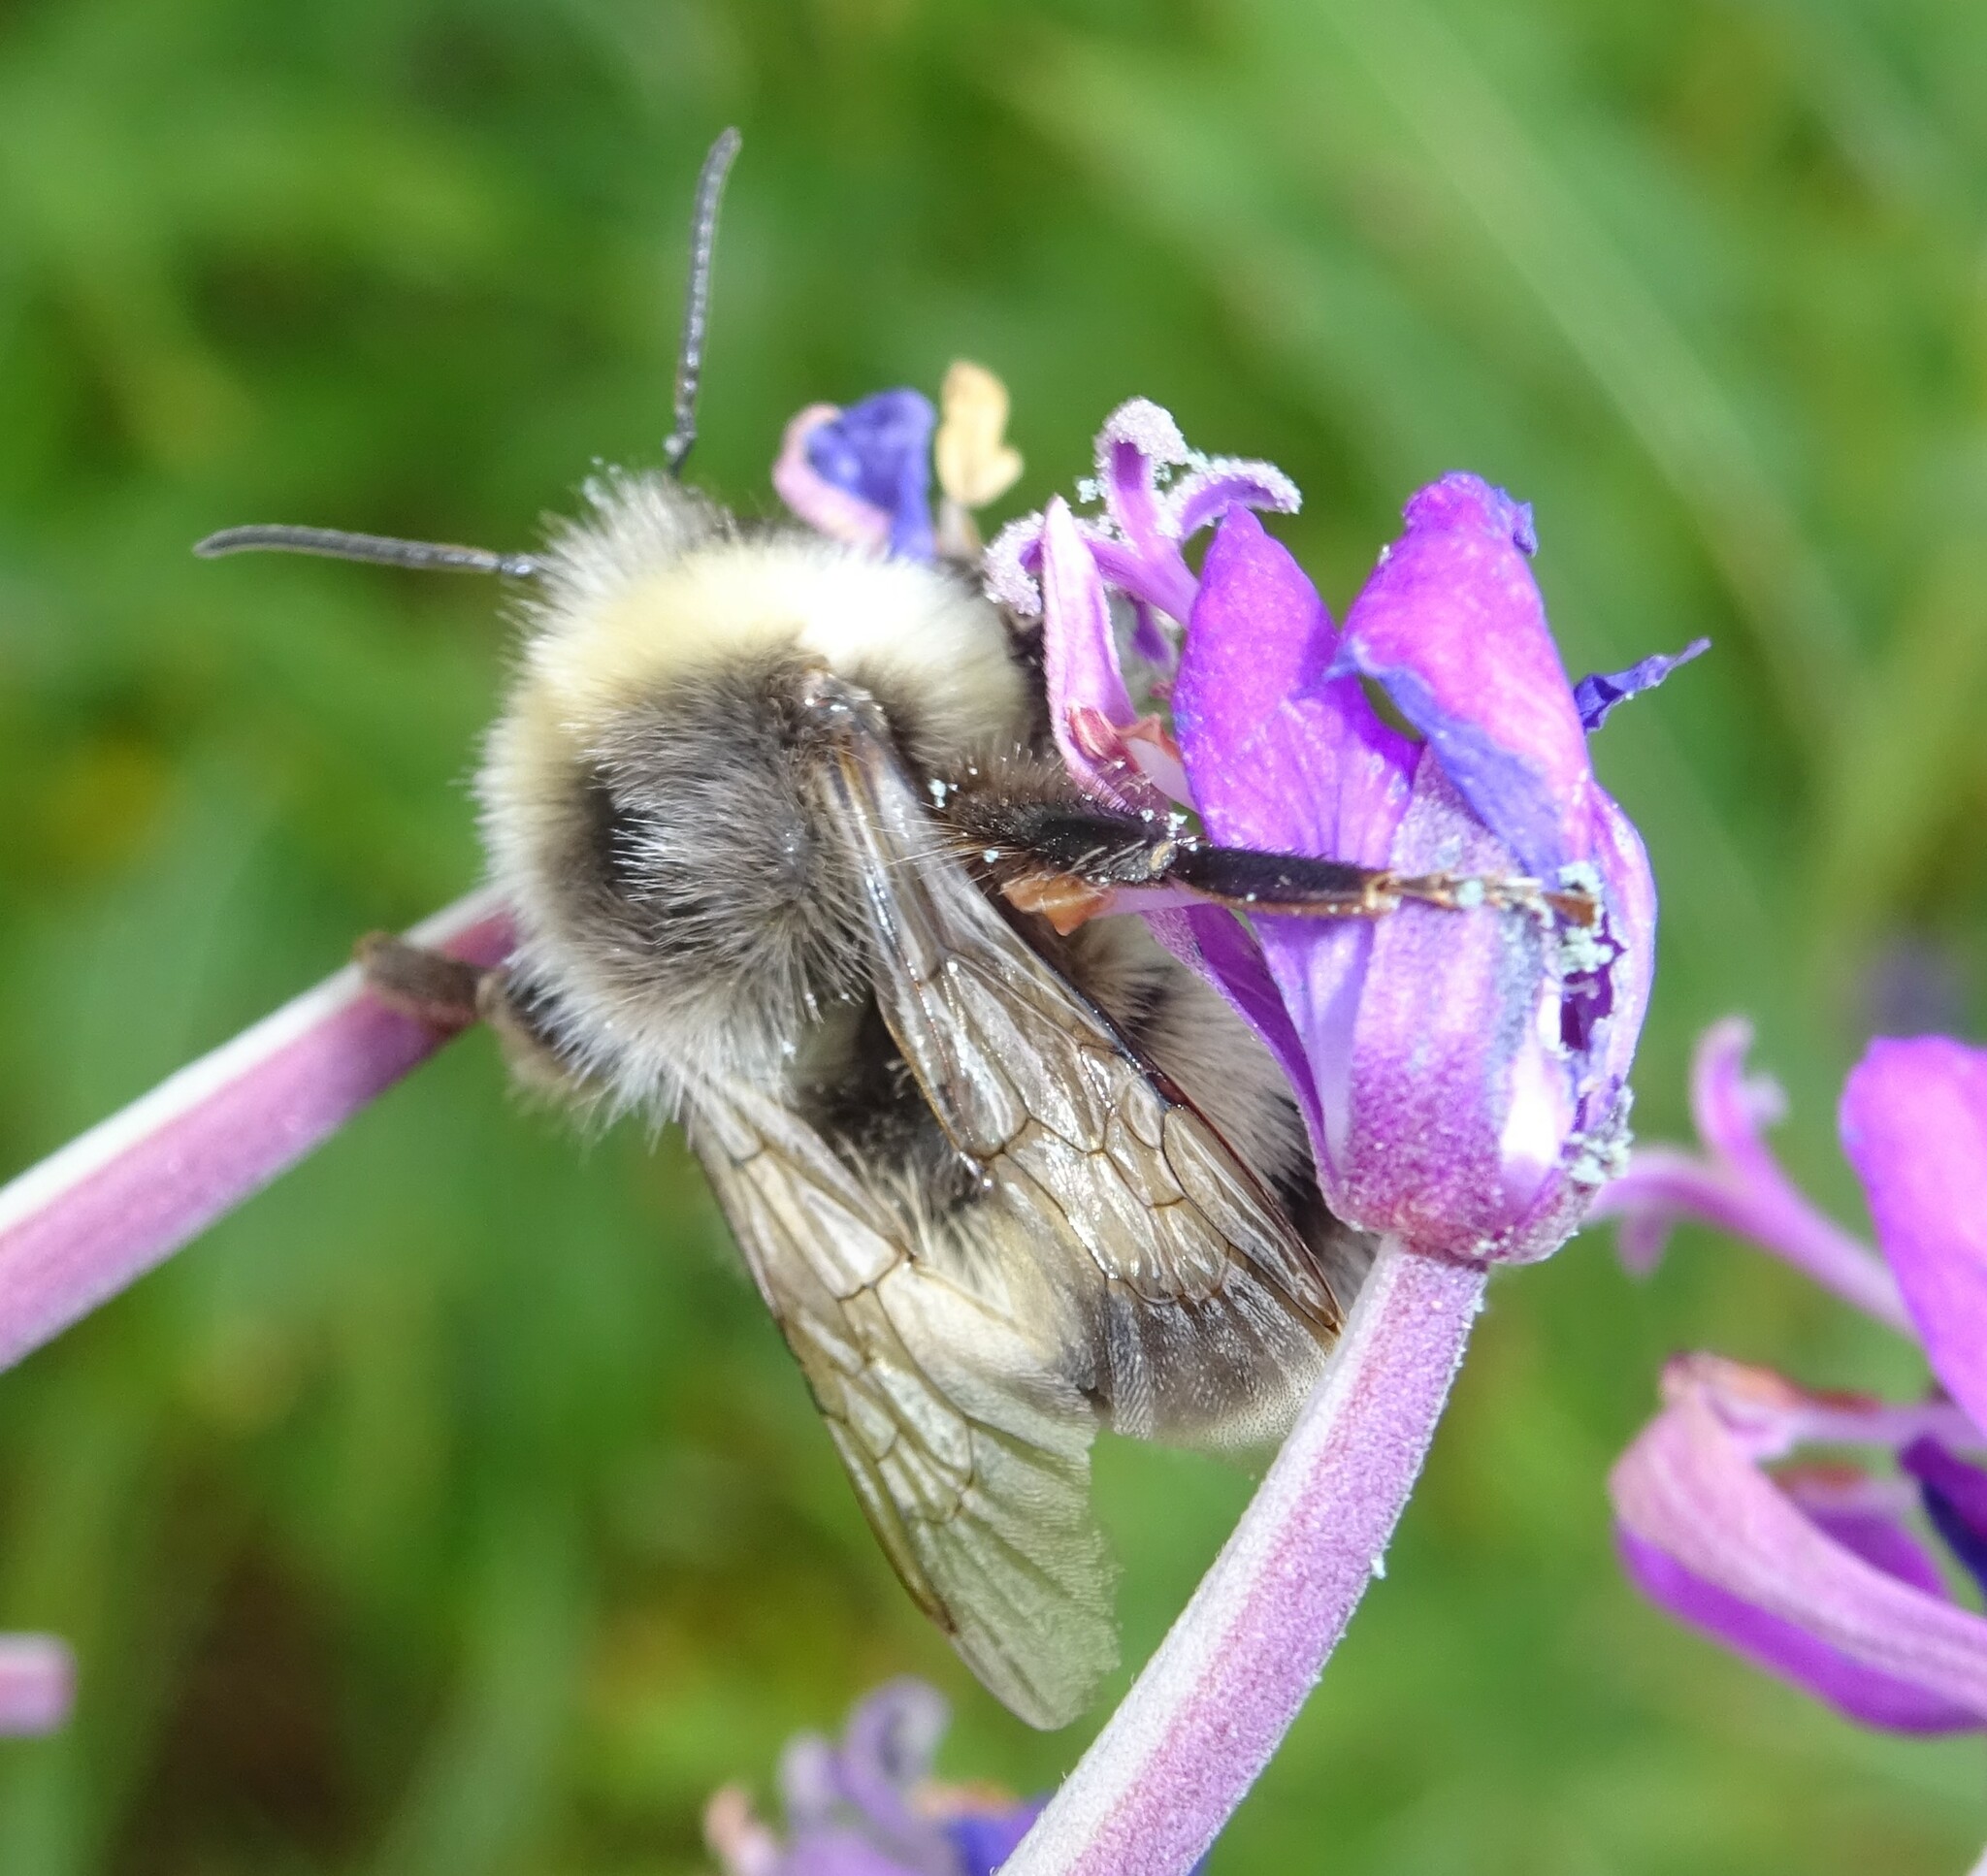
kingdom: Animalia
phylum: Arthropoda
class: Insecta
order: Hymenoptera
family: Apidae
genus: Bombus
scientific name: Bombus lucorum
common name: White-tailed bumblebee
